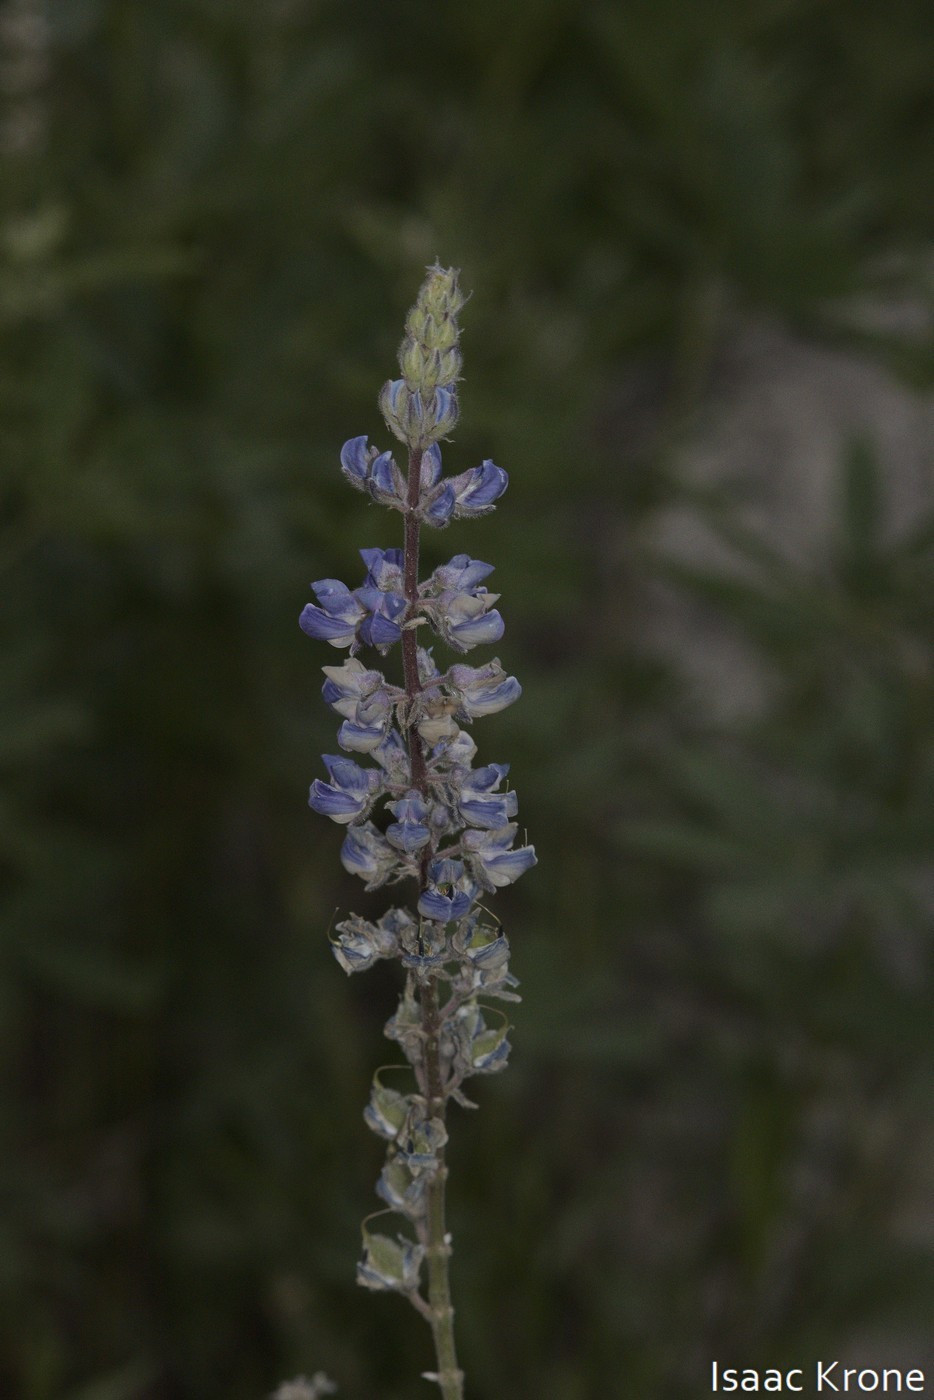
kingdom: Plantae
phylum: Tracheophyta
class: Magnoliopsida
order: Fabales
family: Fabaceae
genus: Lupinus
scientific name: Lupinus argenteus
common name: Silvery lupine
